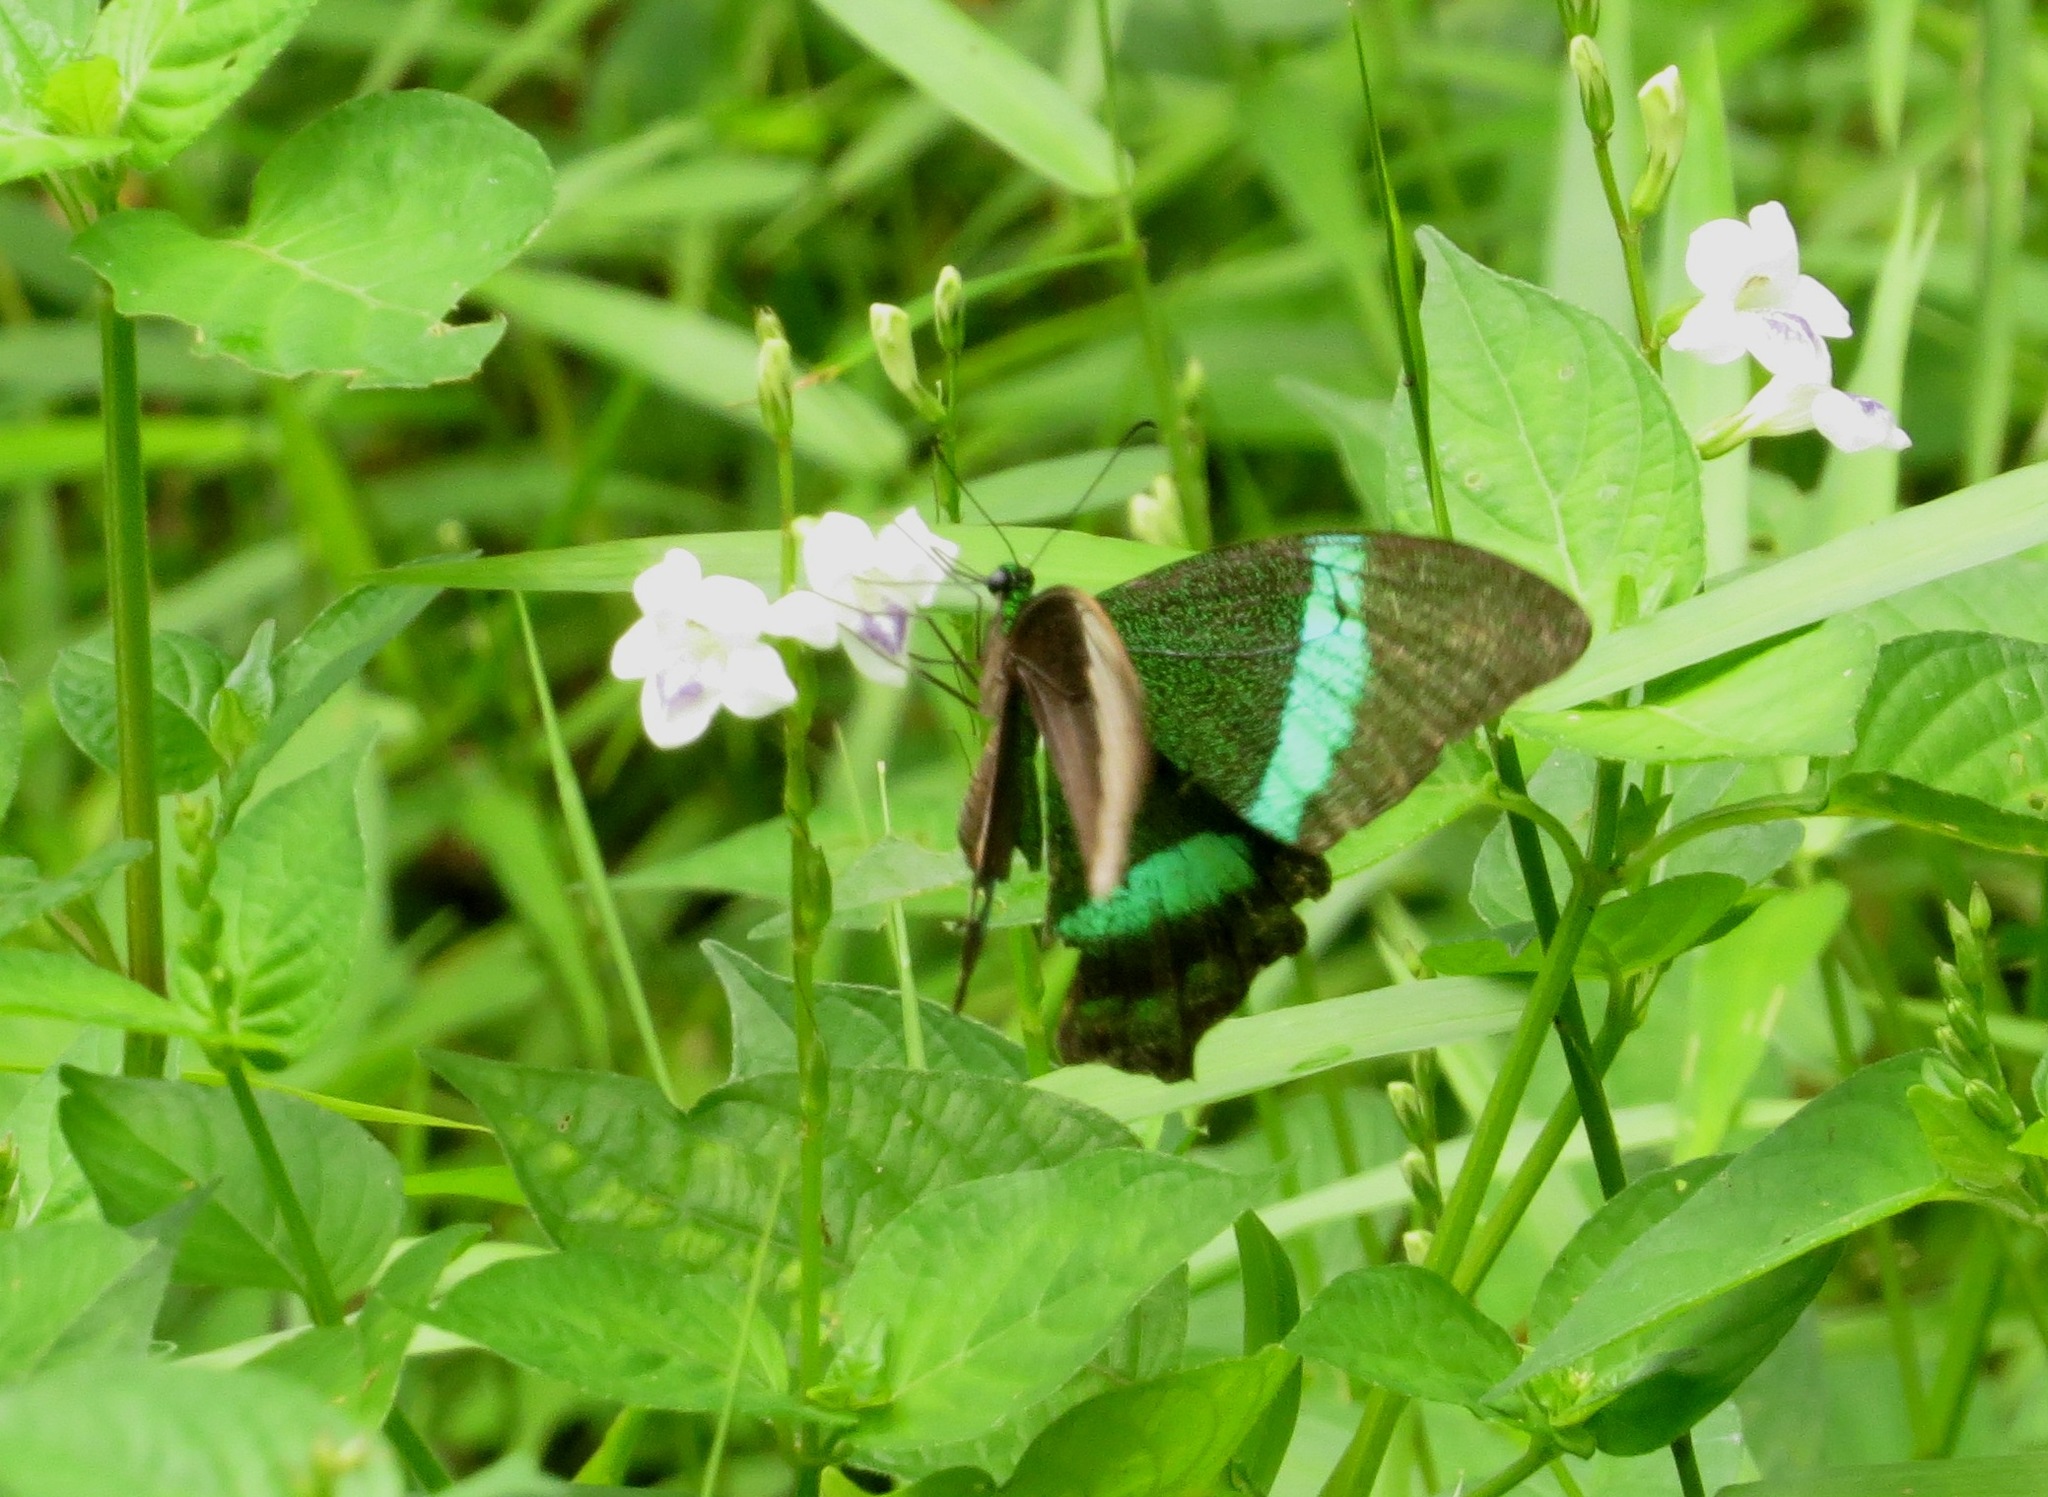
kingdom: Animalia
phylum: Arthropoda
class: Insecta
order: Lepidoptera
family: Papilionidae
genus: Papilio
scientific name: Papilio palinurus
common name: Banded peacock
